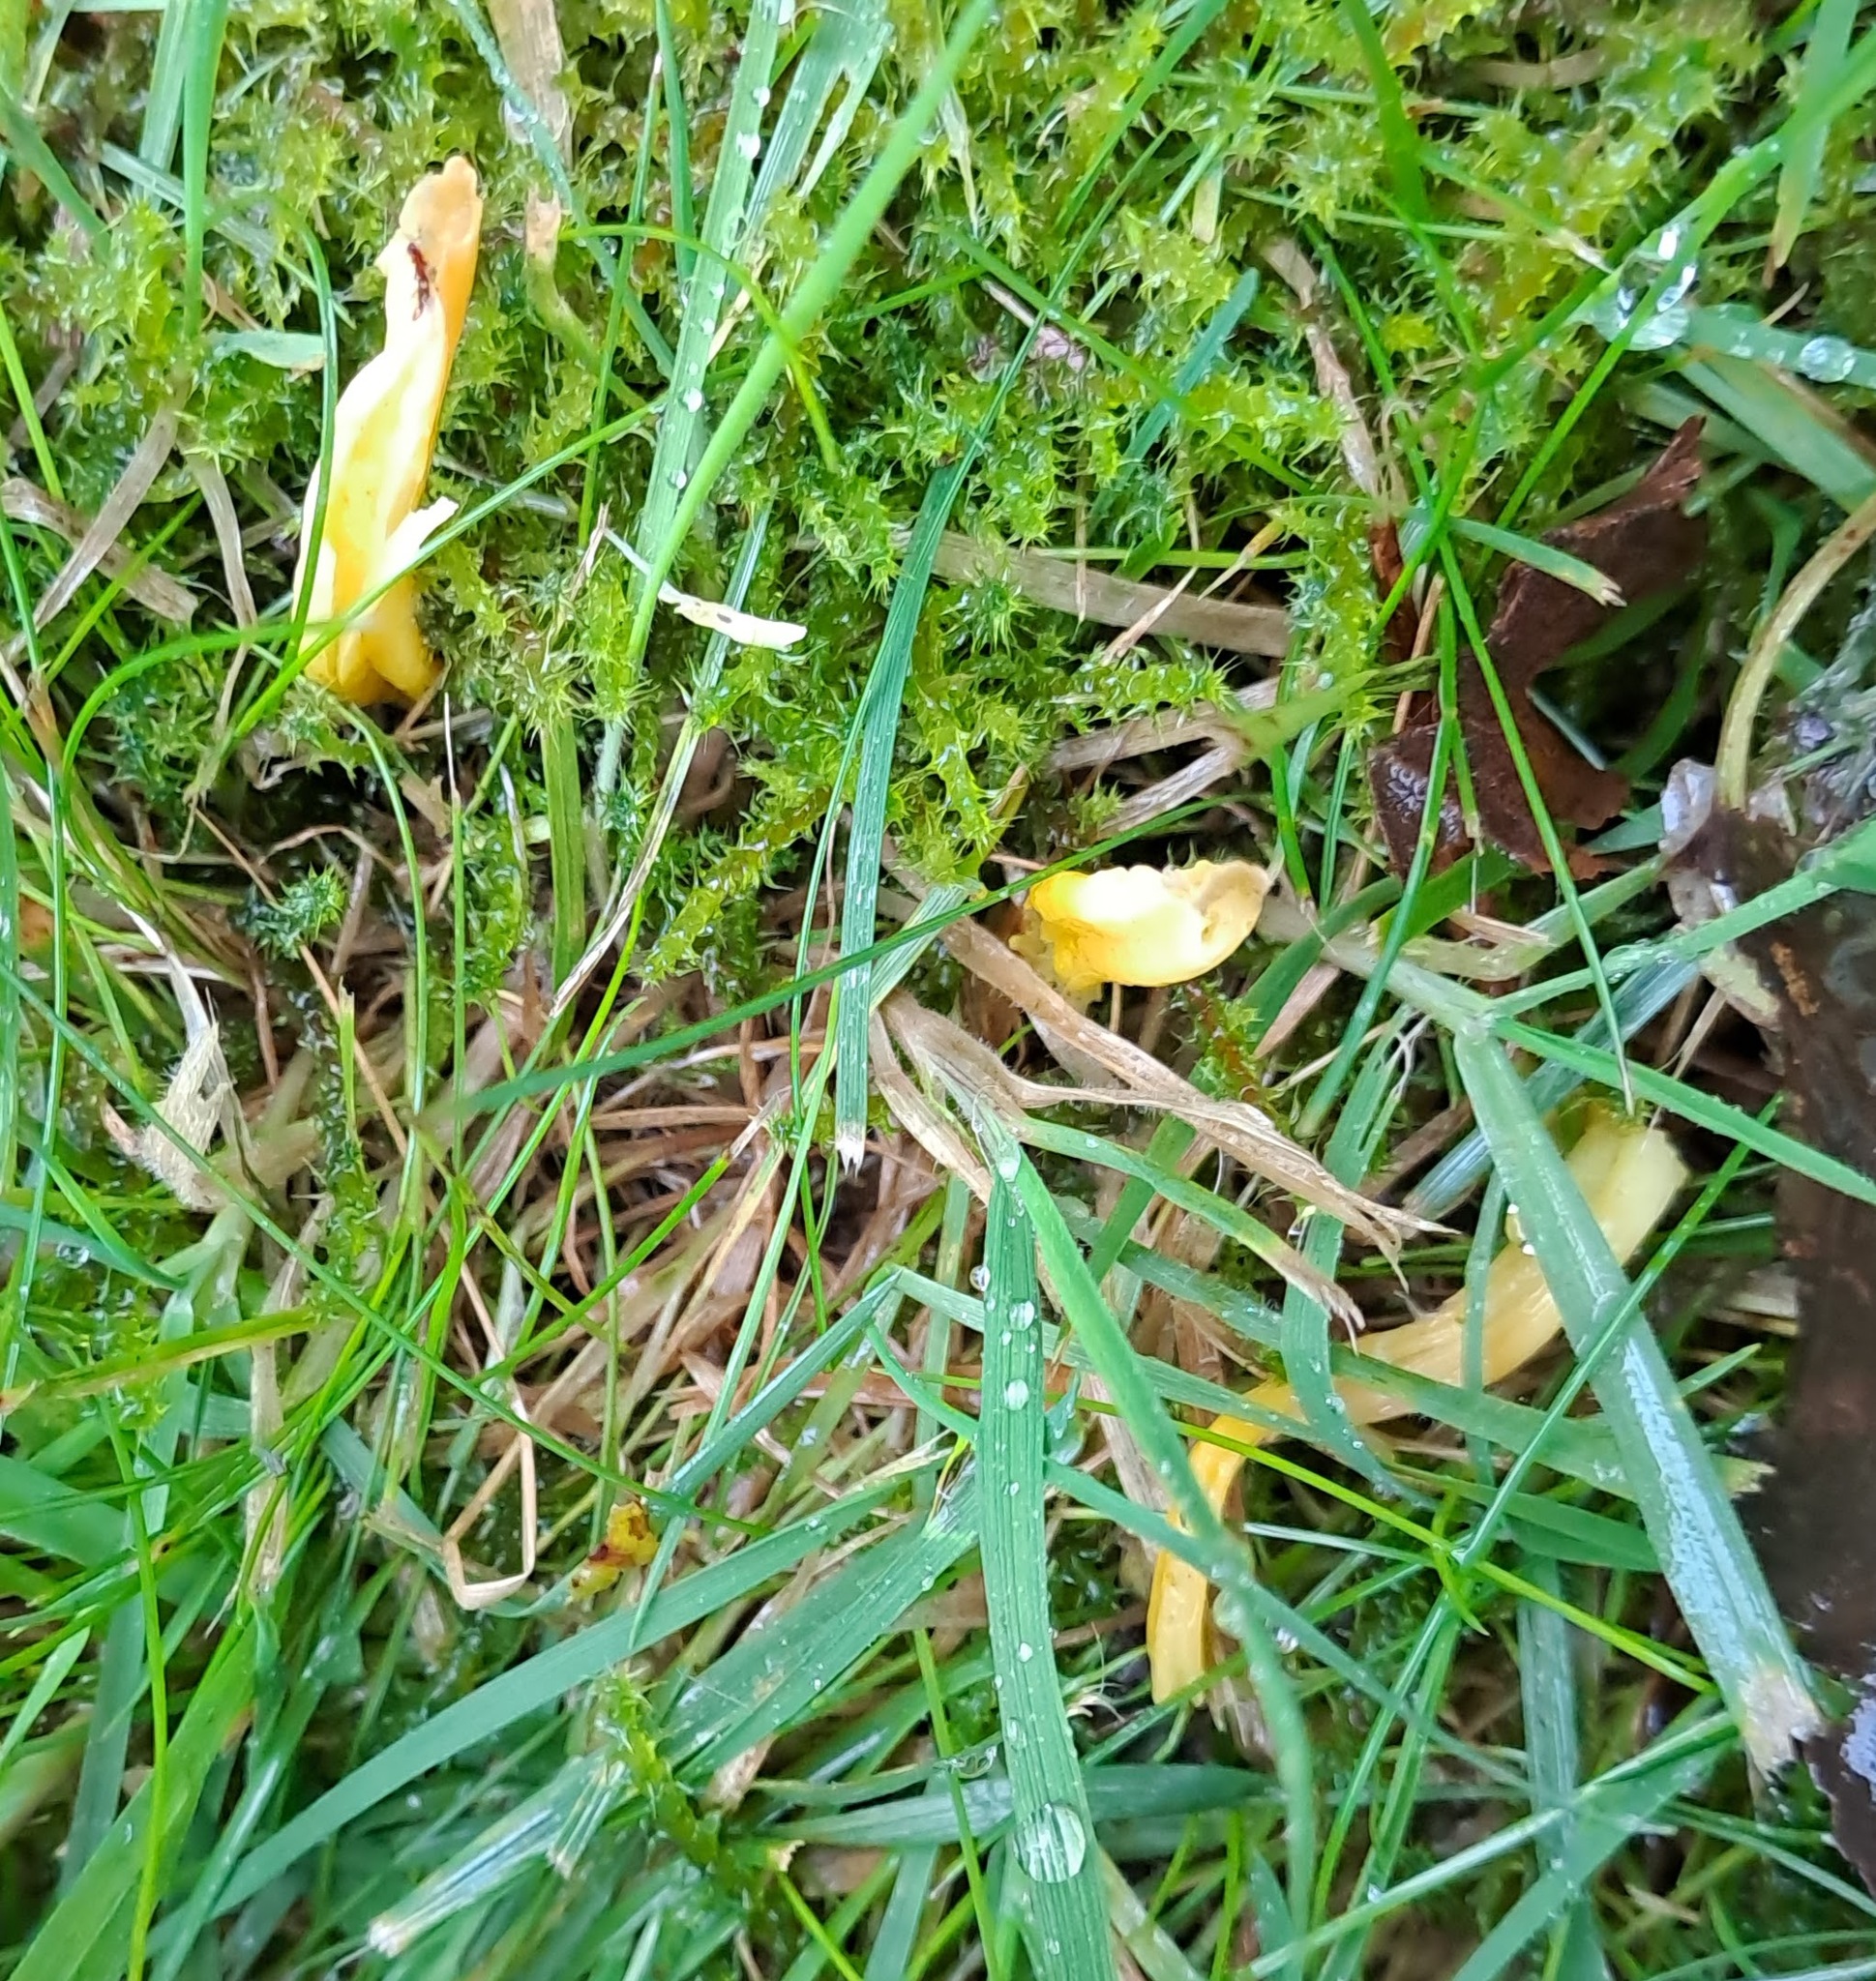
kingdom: Fungi
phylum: Basidiomycota
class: Agaricomycetes
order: Agaricales
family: Clavariaceae
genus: Clavulinopsis
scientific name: Clavulinopsis helvola
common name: Yellow club
